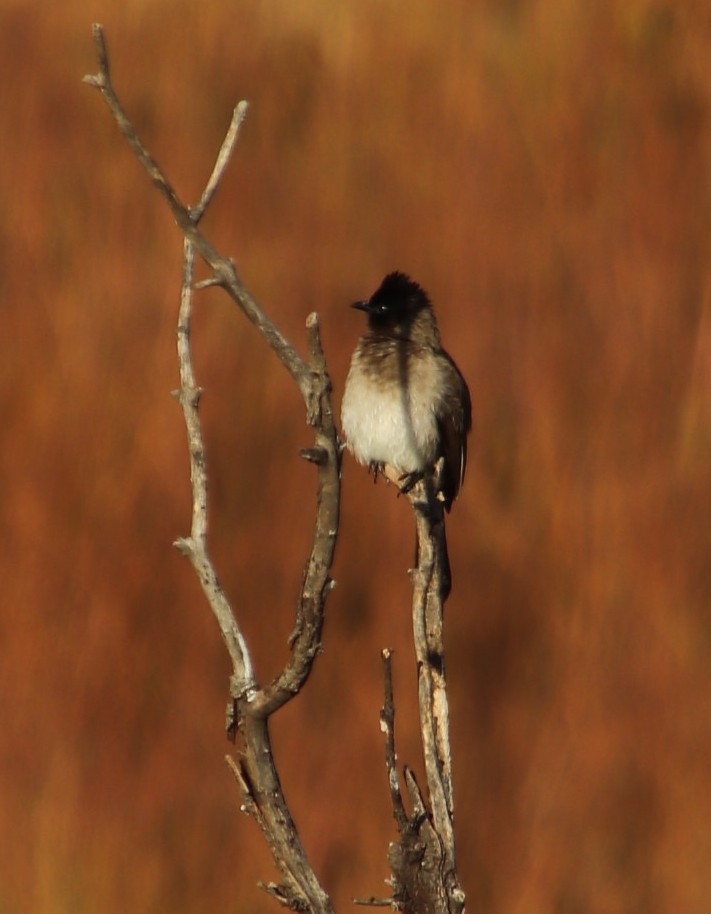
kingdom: Animalia
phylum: Chordata
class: Aves
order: Passeriformes
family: Pycnonotidae
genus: Pycnonotus
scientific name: Pycnonotus barbatus
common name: Common bulbul
